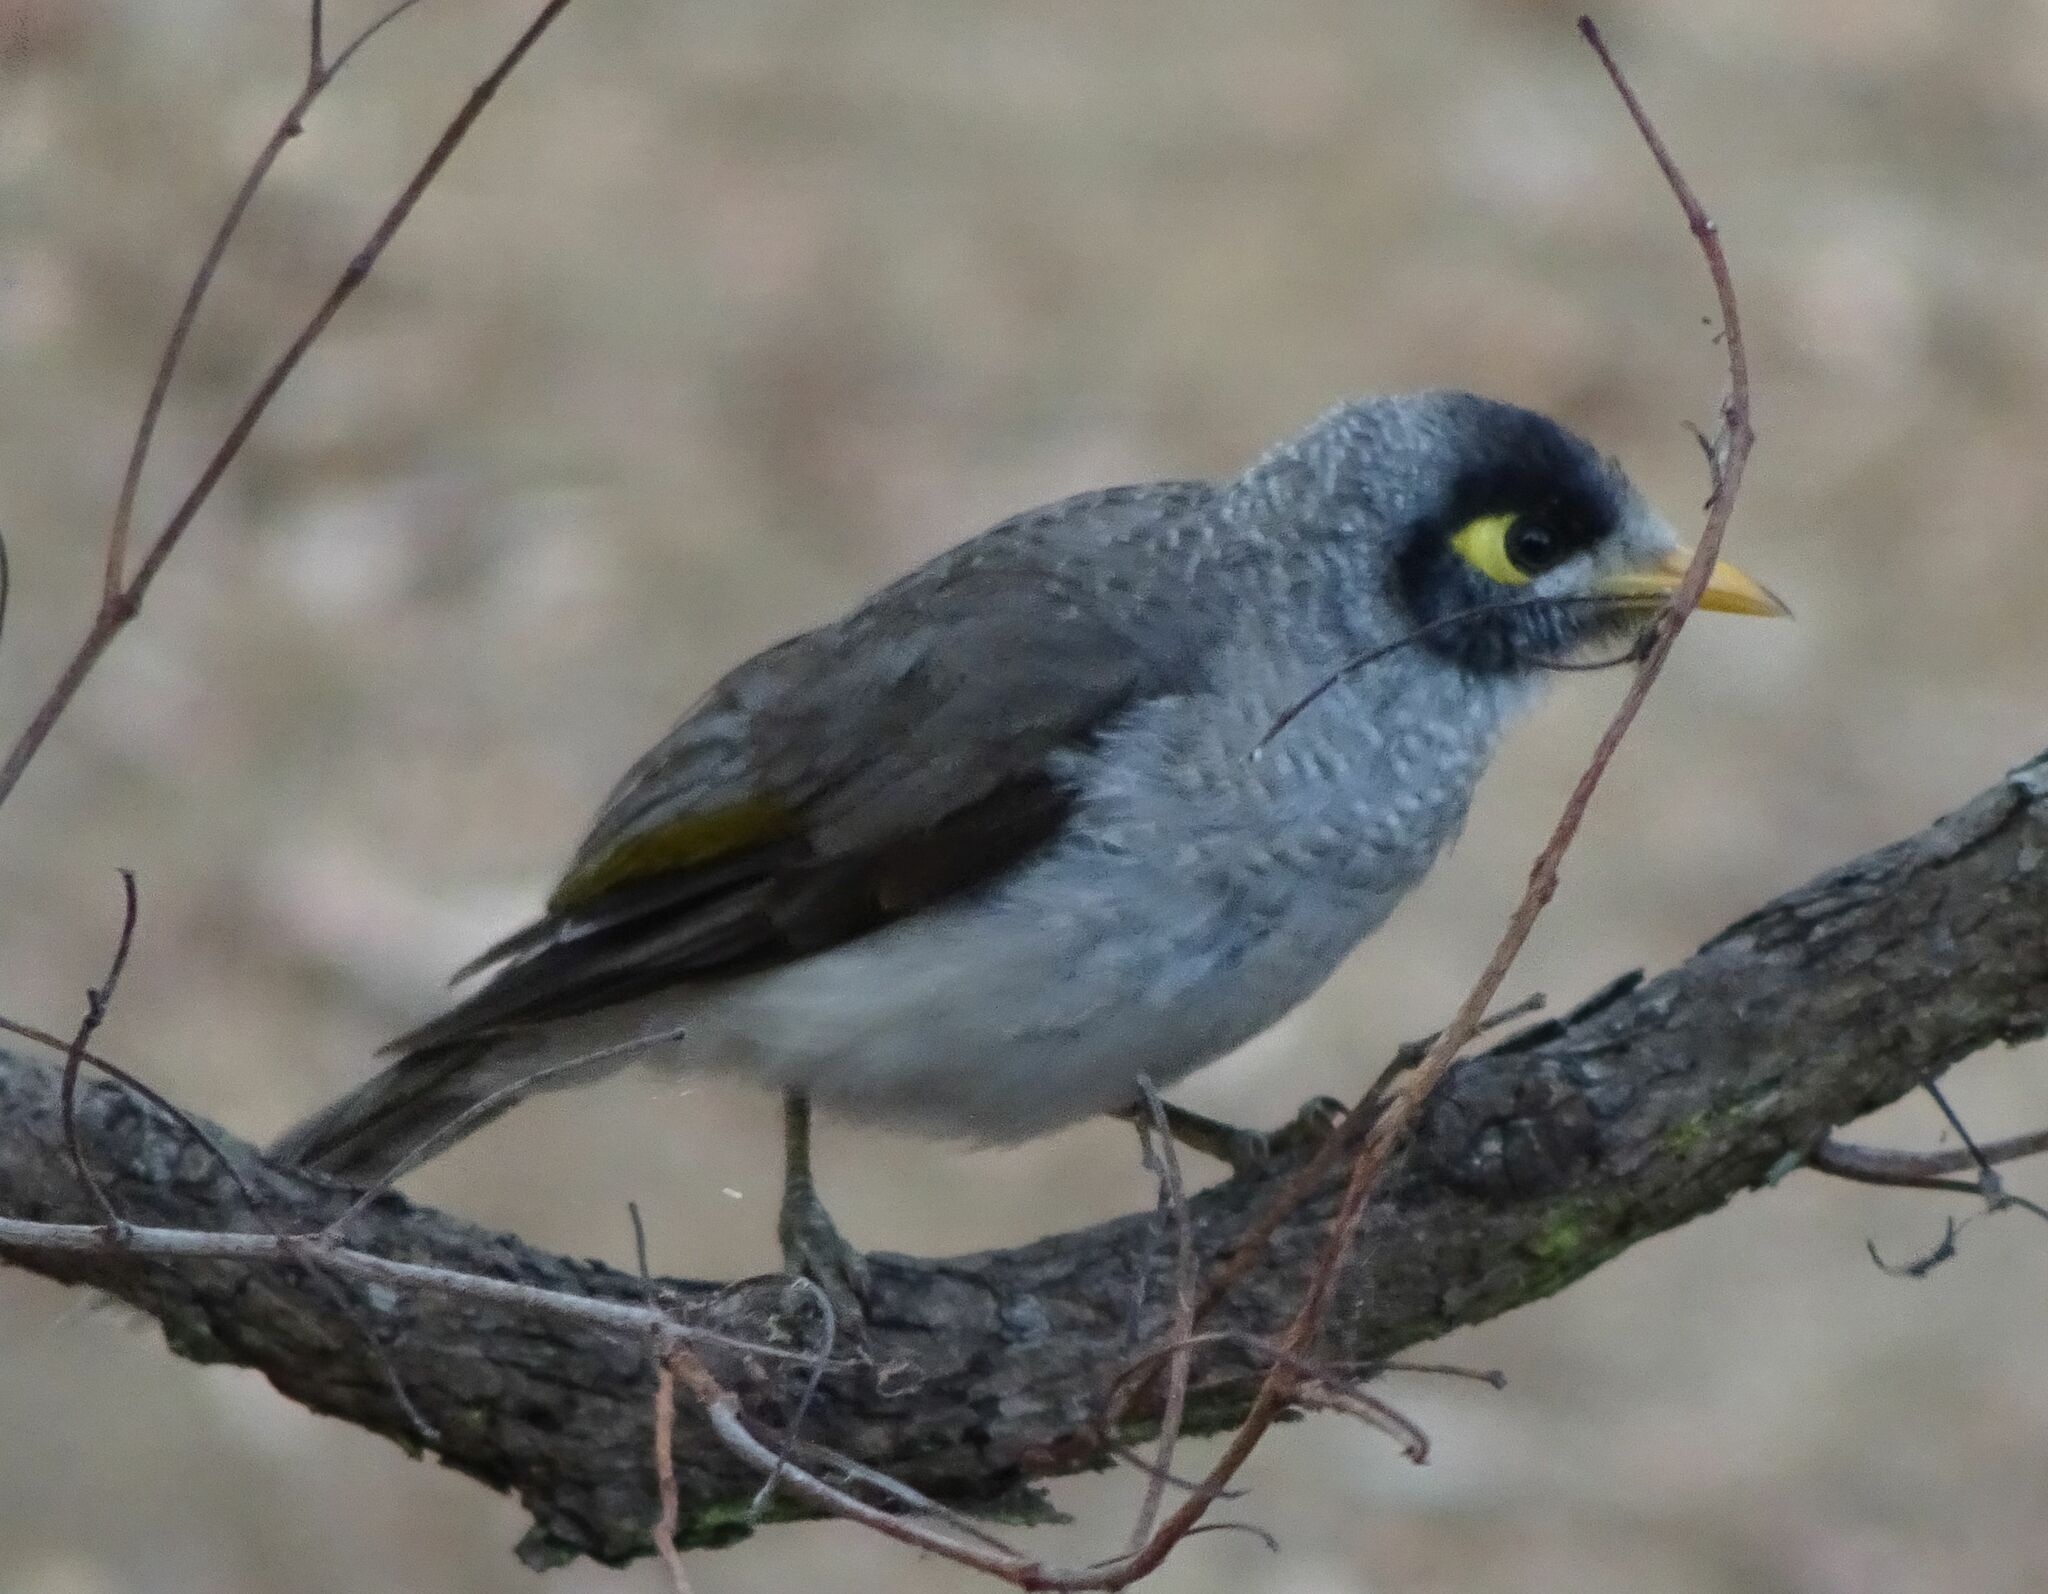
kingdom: Animalia
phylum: Chordata
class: Aves
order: Passeriformes
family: Meliphagidae
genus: Manorina
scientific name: Manorina melanocephala
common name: Noisy miner
